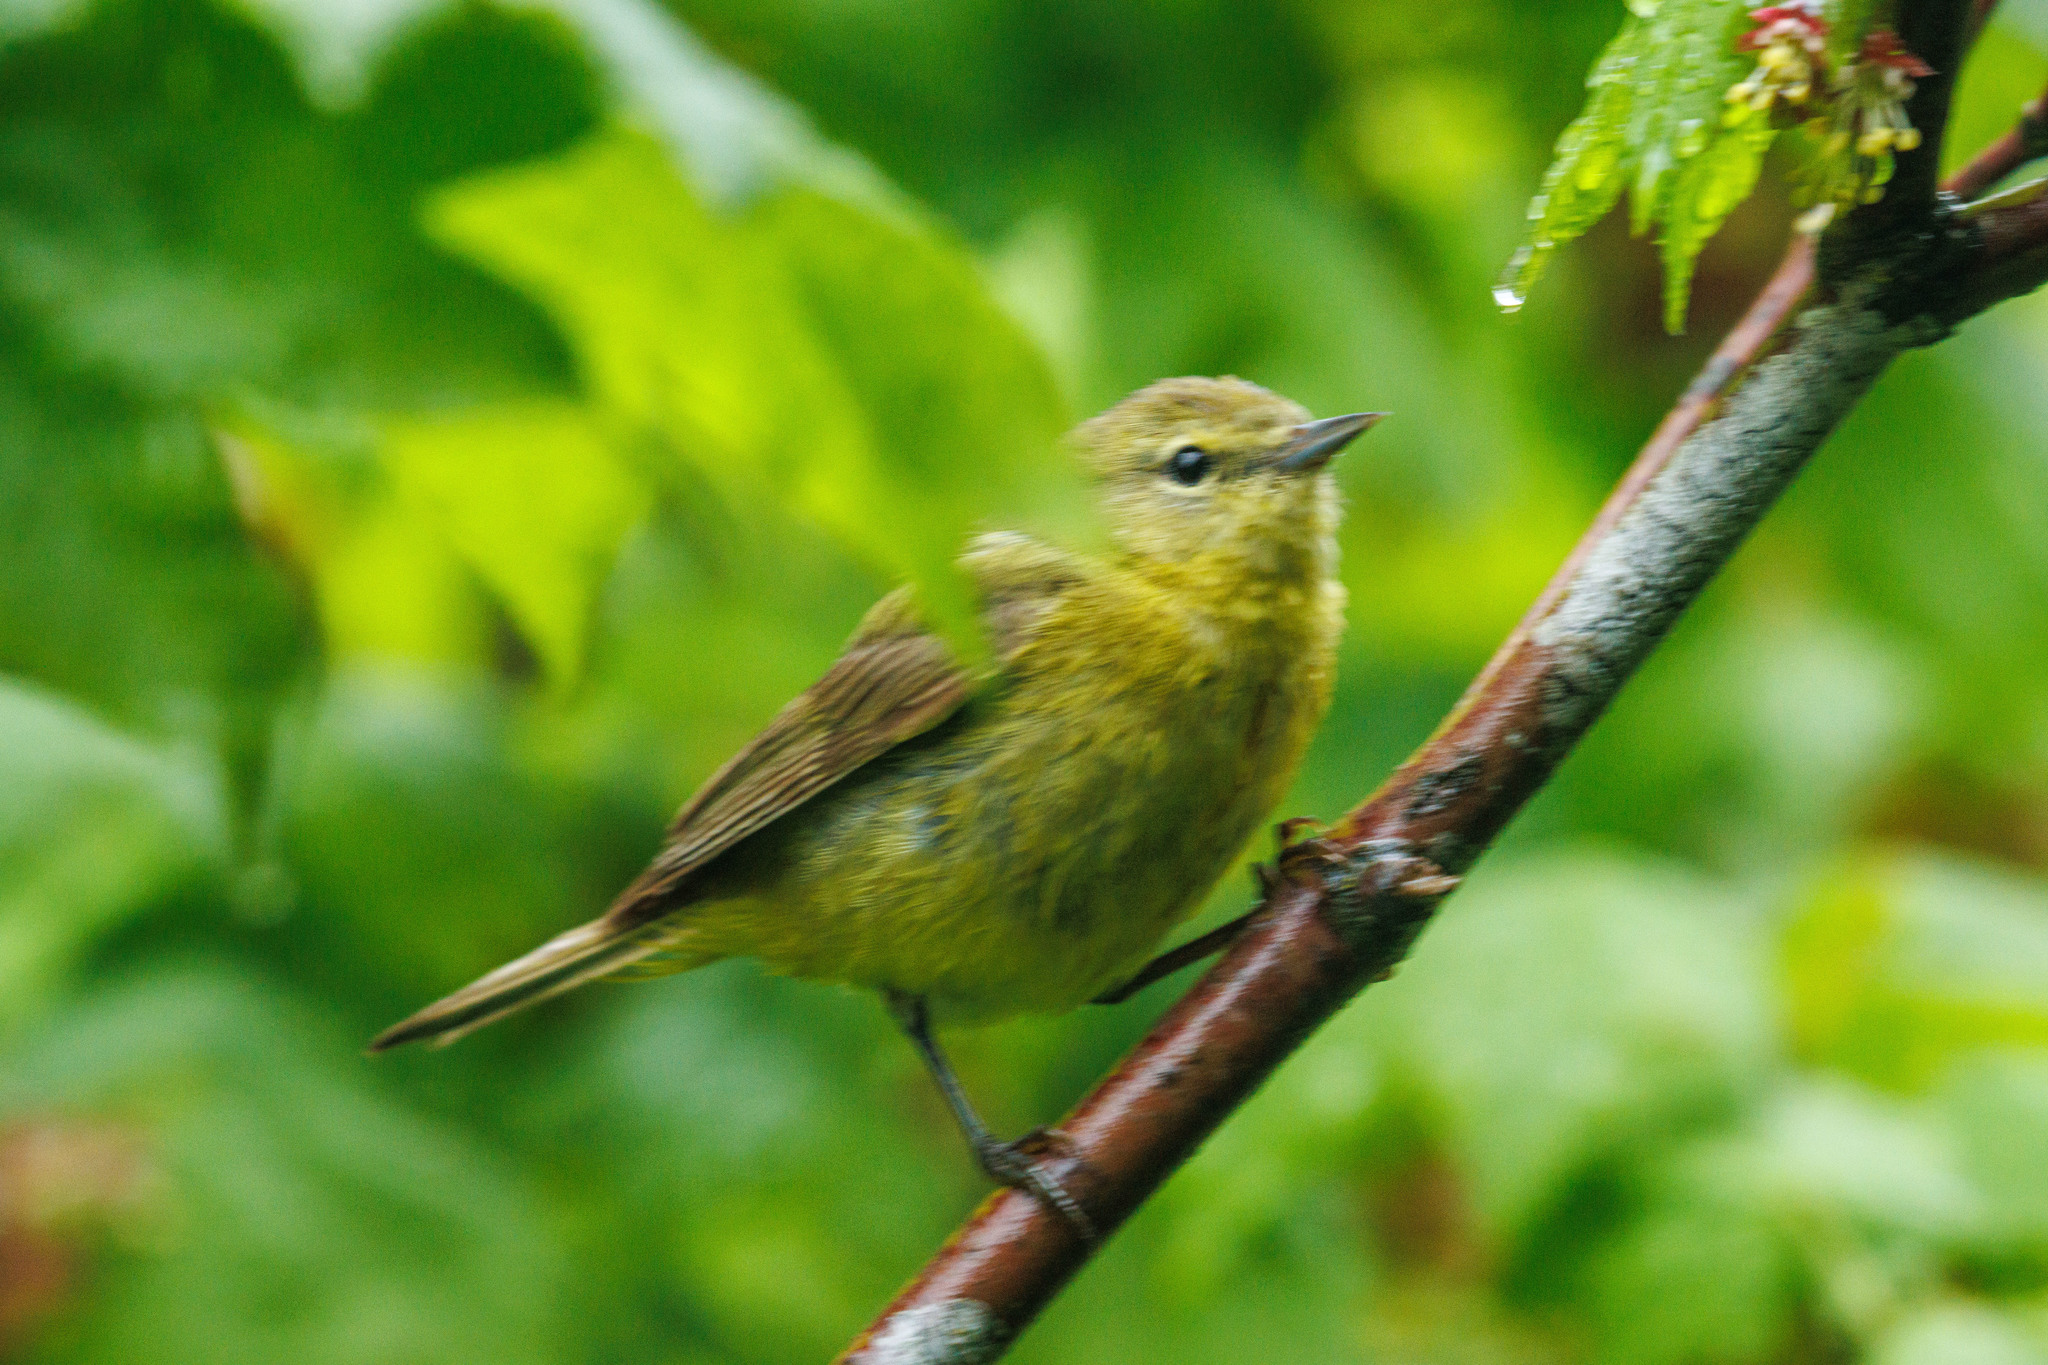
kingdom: Animalia
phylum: Chordata
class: Aves
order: Passeriformes
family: Parulidae
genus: Leiothlypis
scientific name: Leiothlypis celata
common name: Orange-crowned warbler
